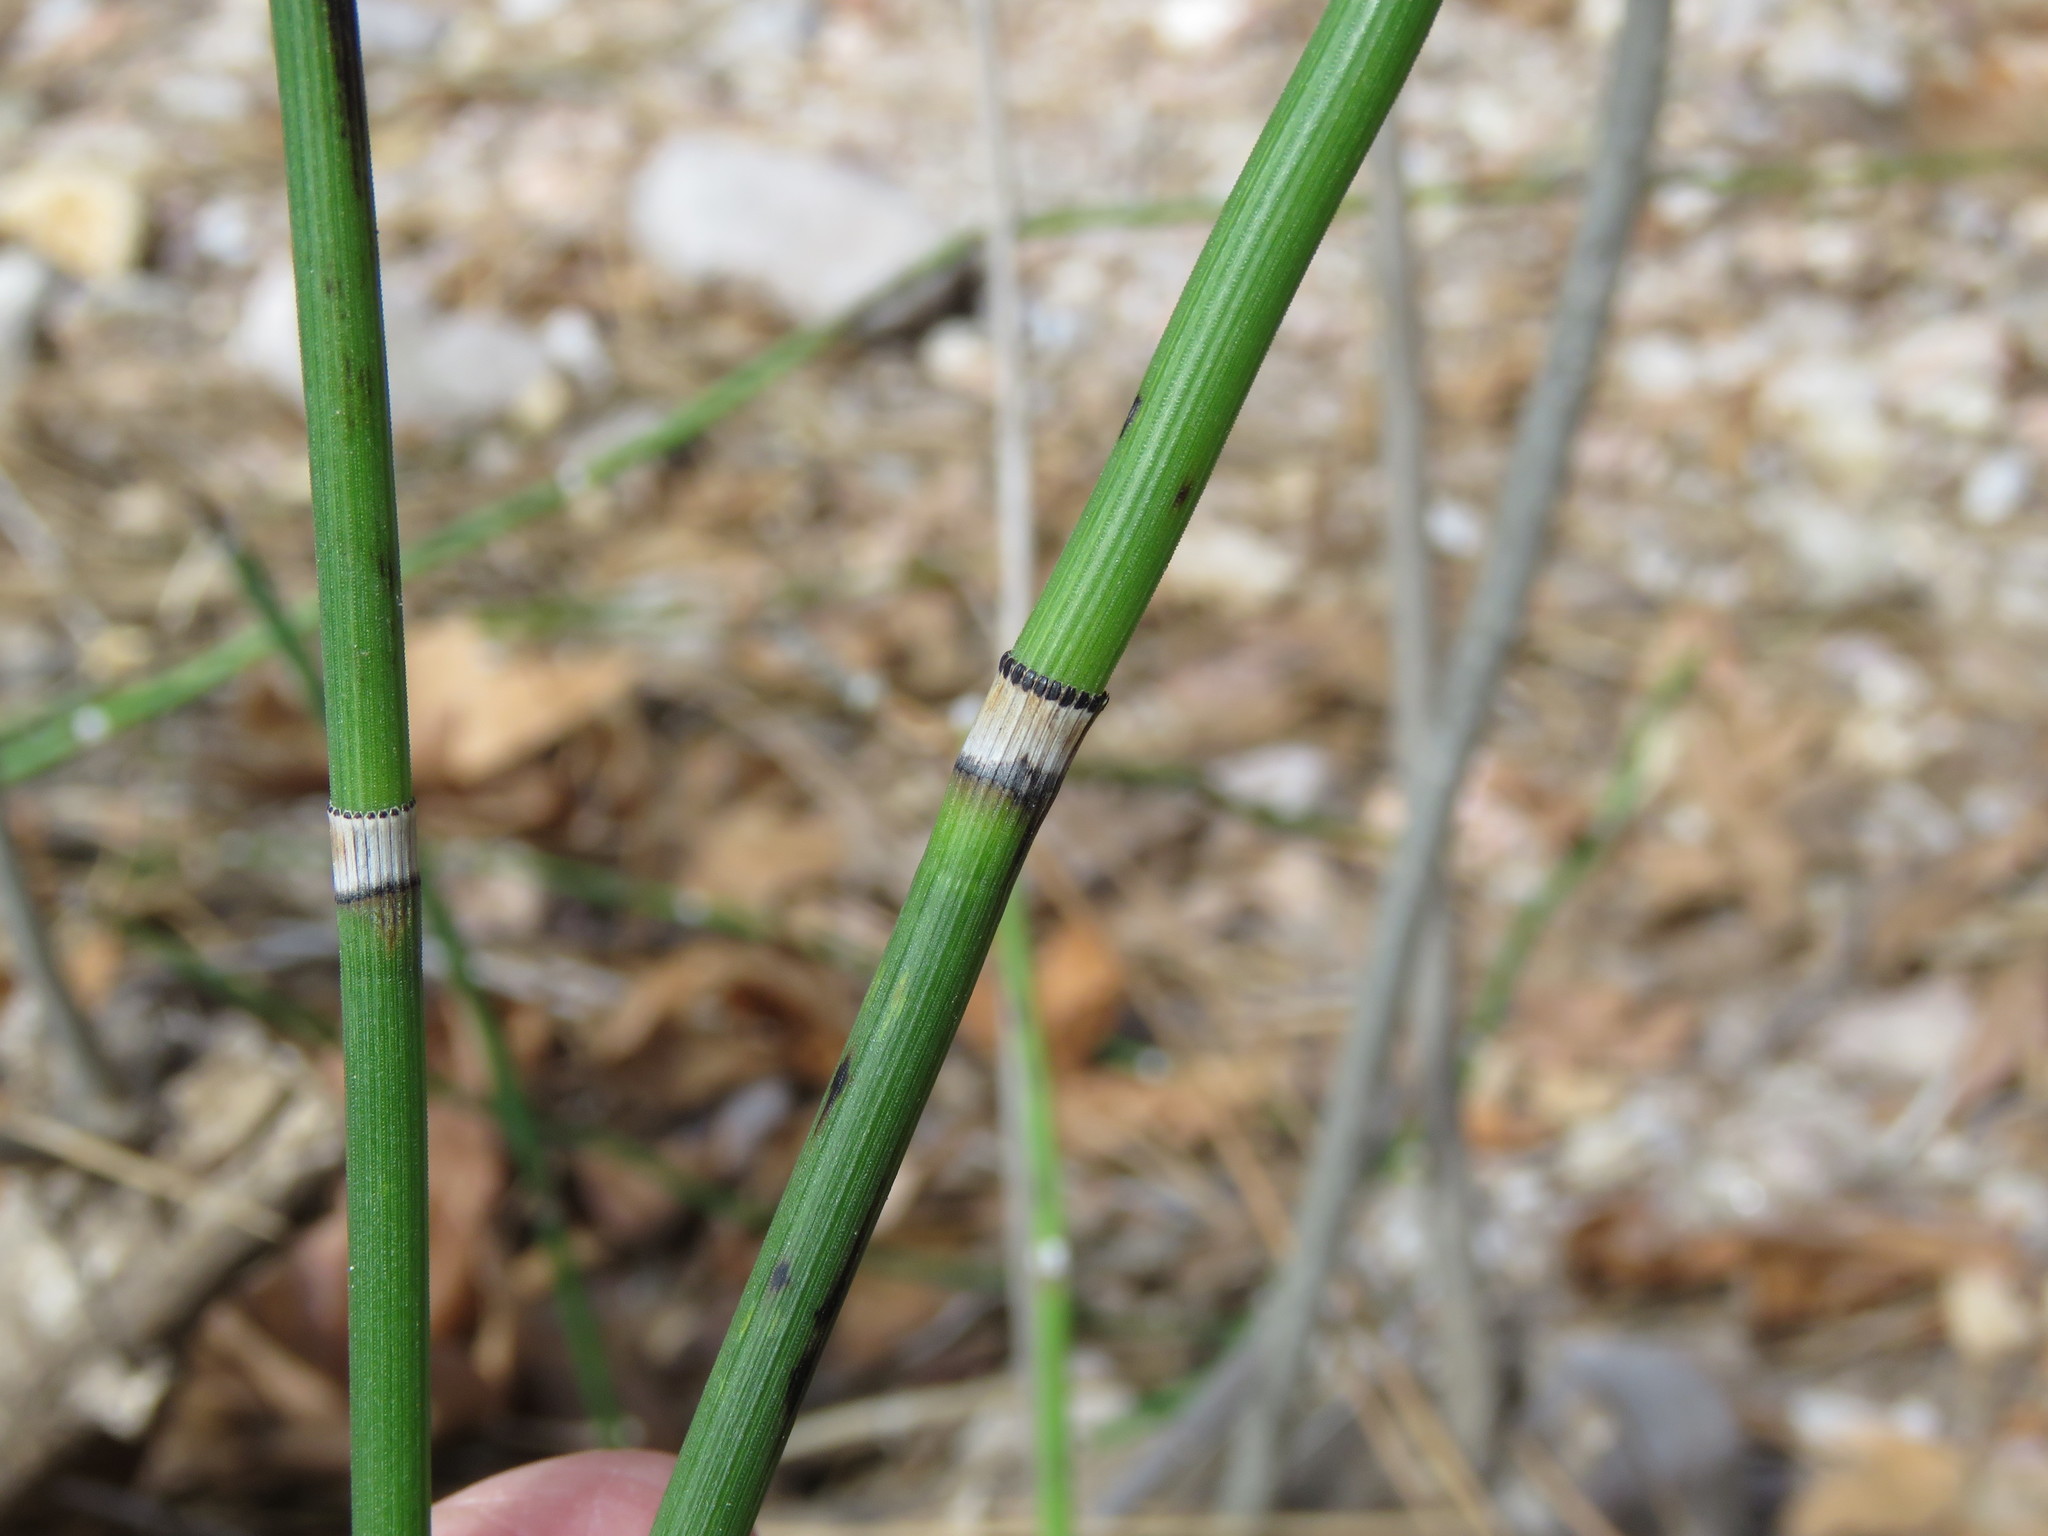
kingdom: Plantae
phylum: Tracheophyta
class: Polypodiopsida
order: Equisetales
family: Equisetaceae
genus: Equisetum
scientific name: Equisetum hyemale
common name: Rough horsetail
